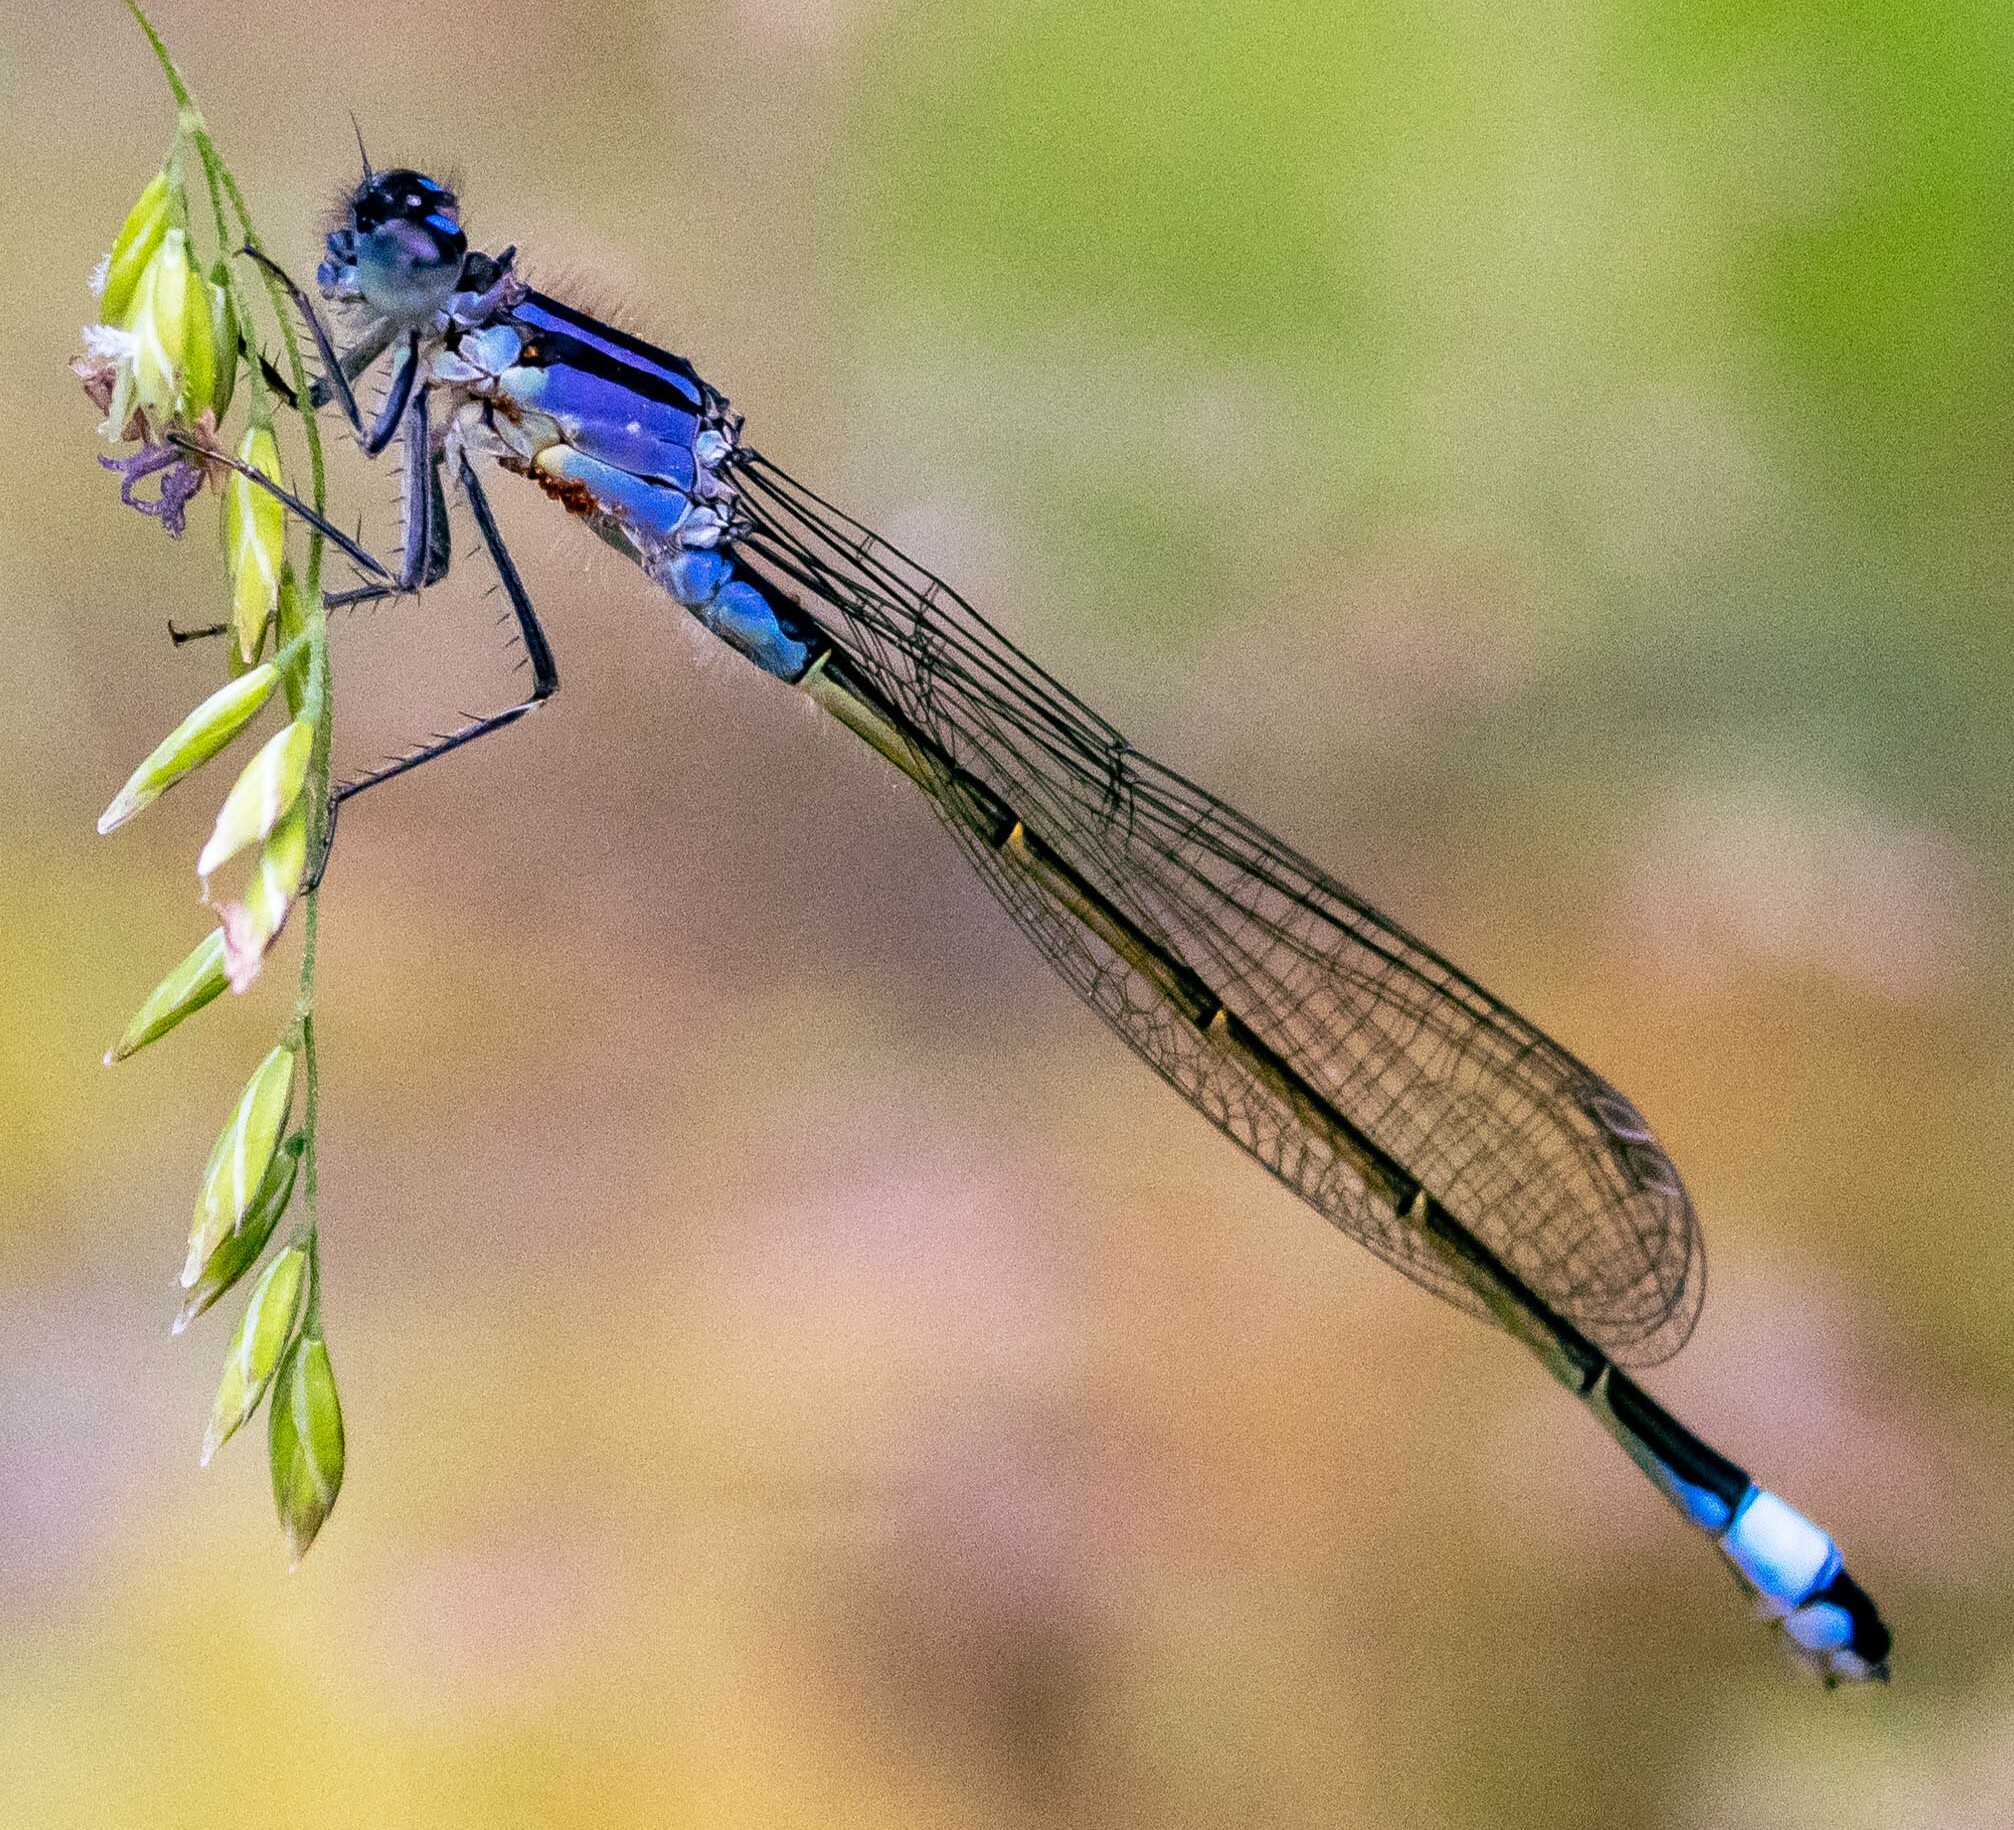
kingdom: Animalia
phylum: Arthropoda
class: Insecta
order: Odonata
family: Coenagrionidae
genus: Ischnura
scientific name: Ischnura elegans
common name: Blue-tailed damselfly
